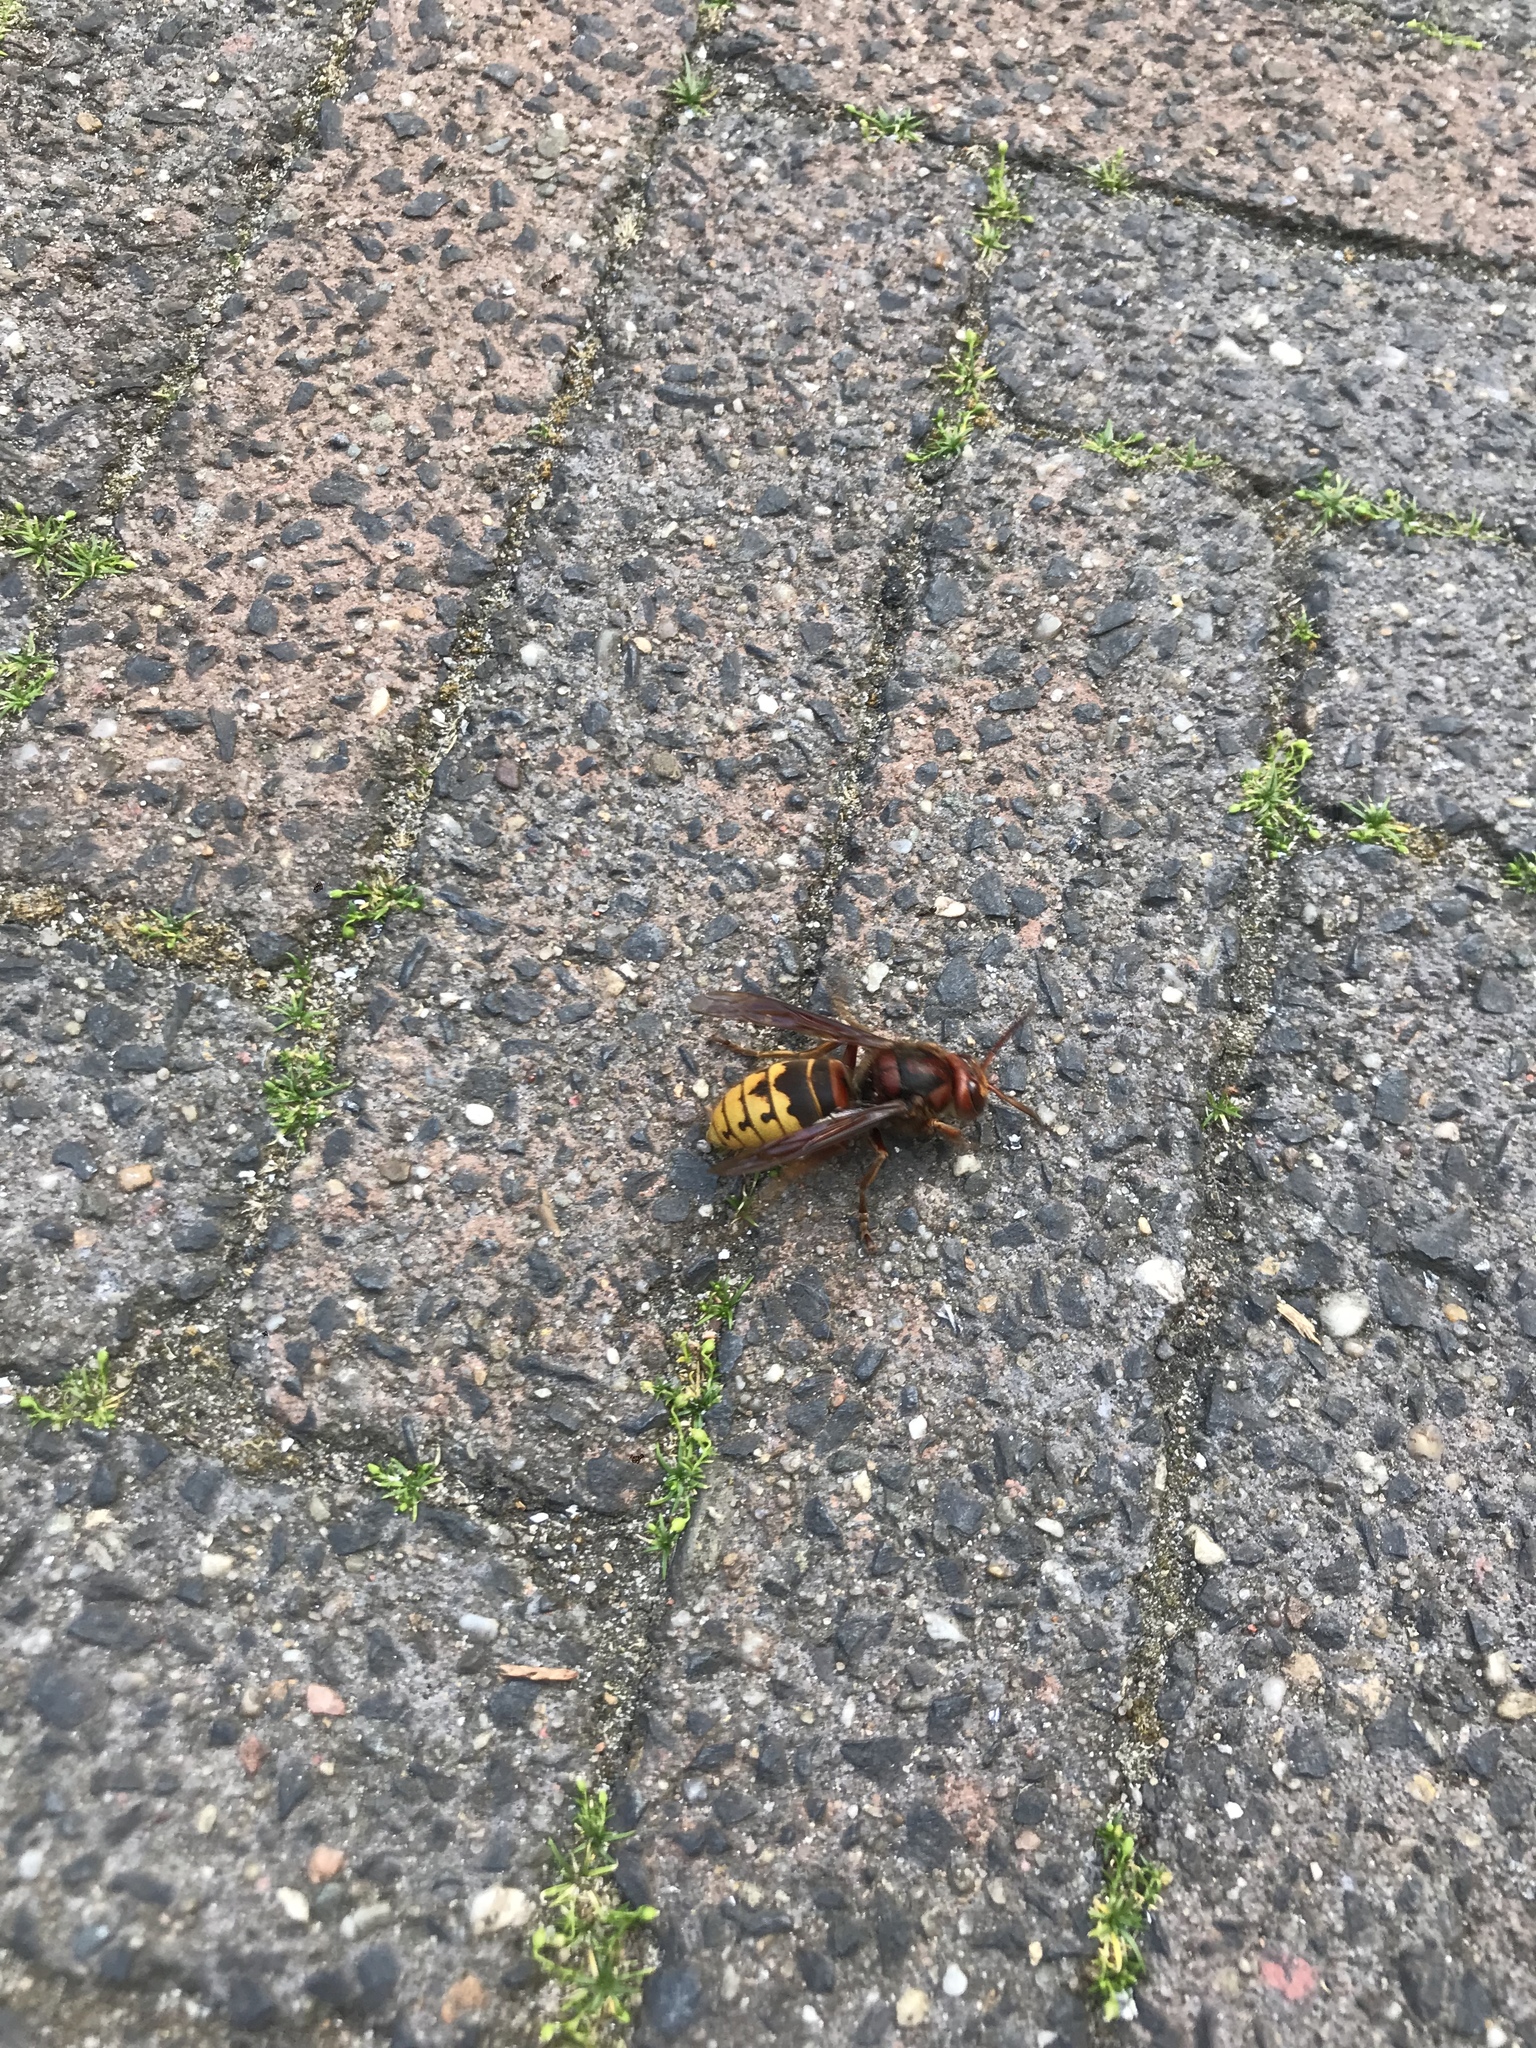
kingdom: Animalia
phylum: Arthropoda
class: Insecta
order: Hymenoptera
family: Vespidae
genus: Vespa
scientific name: Vespa crabro
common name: Hornet
